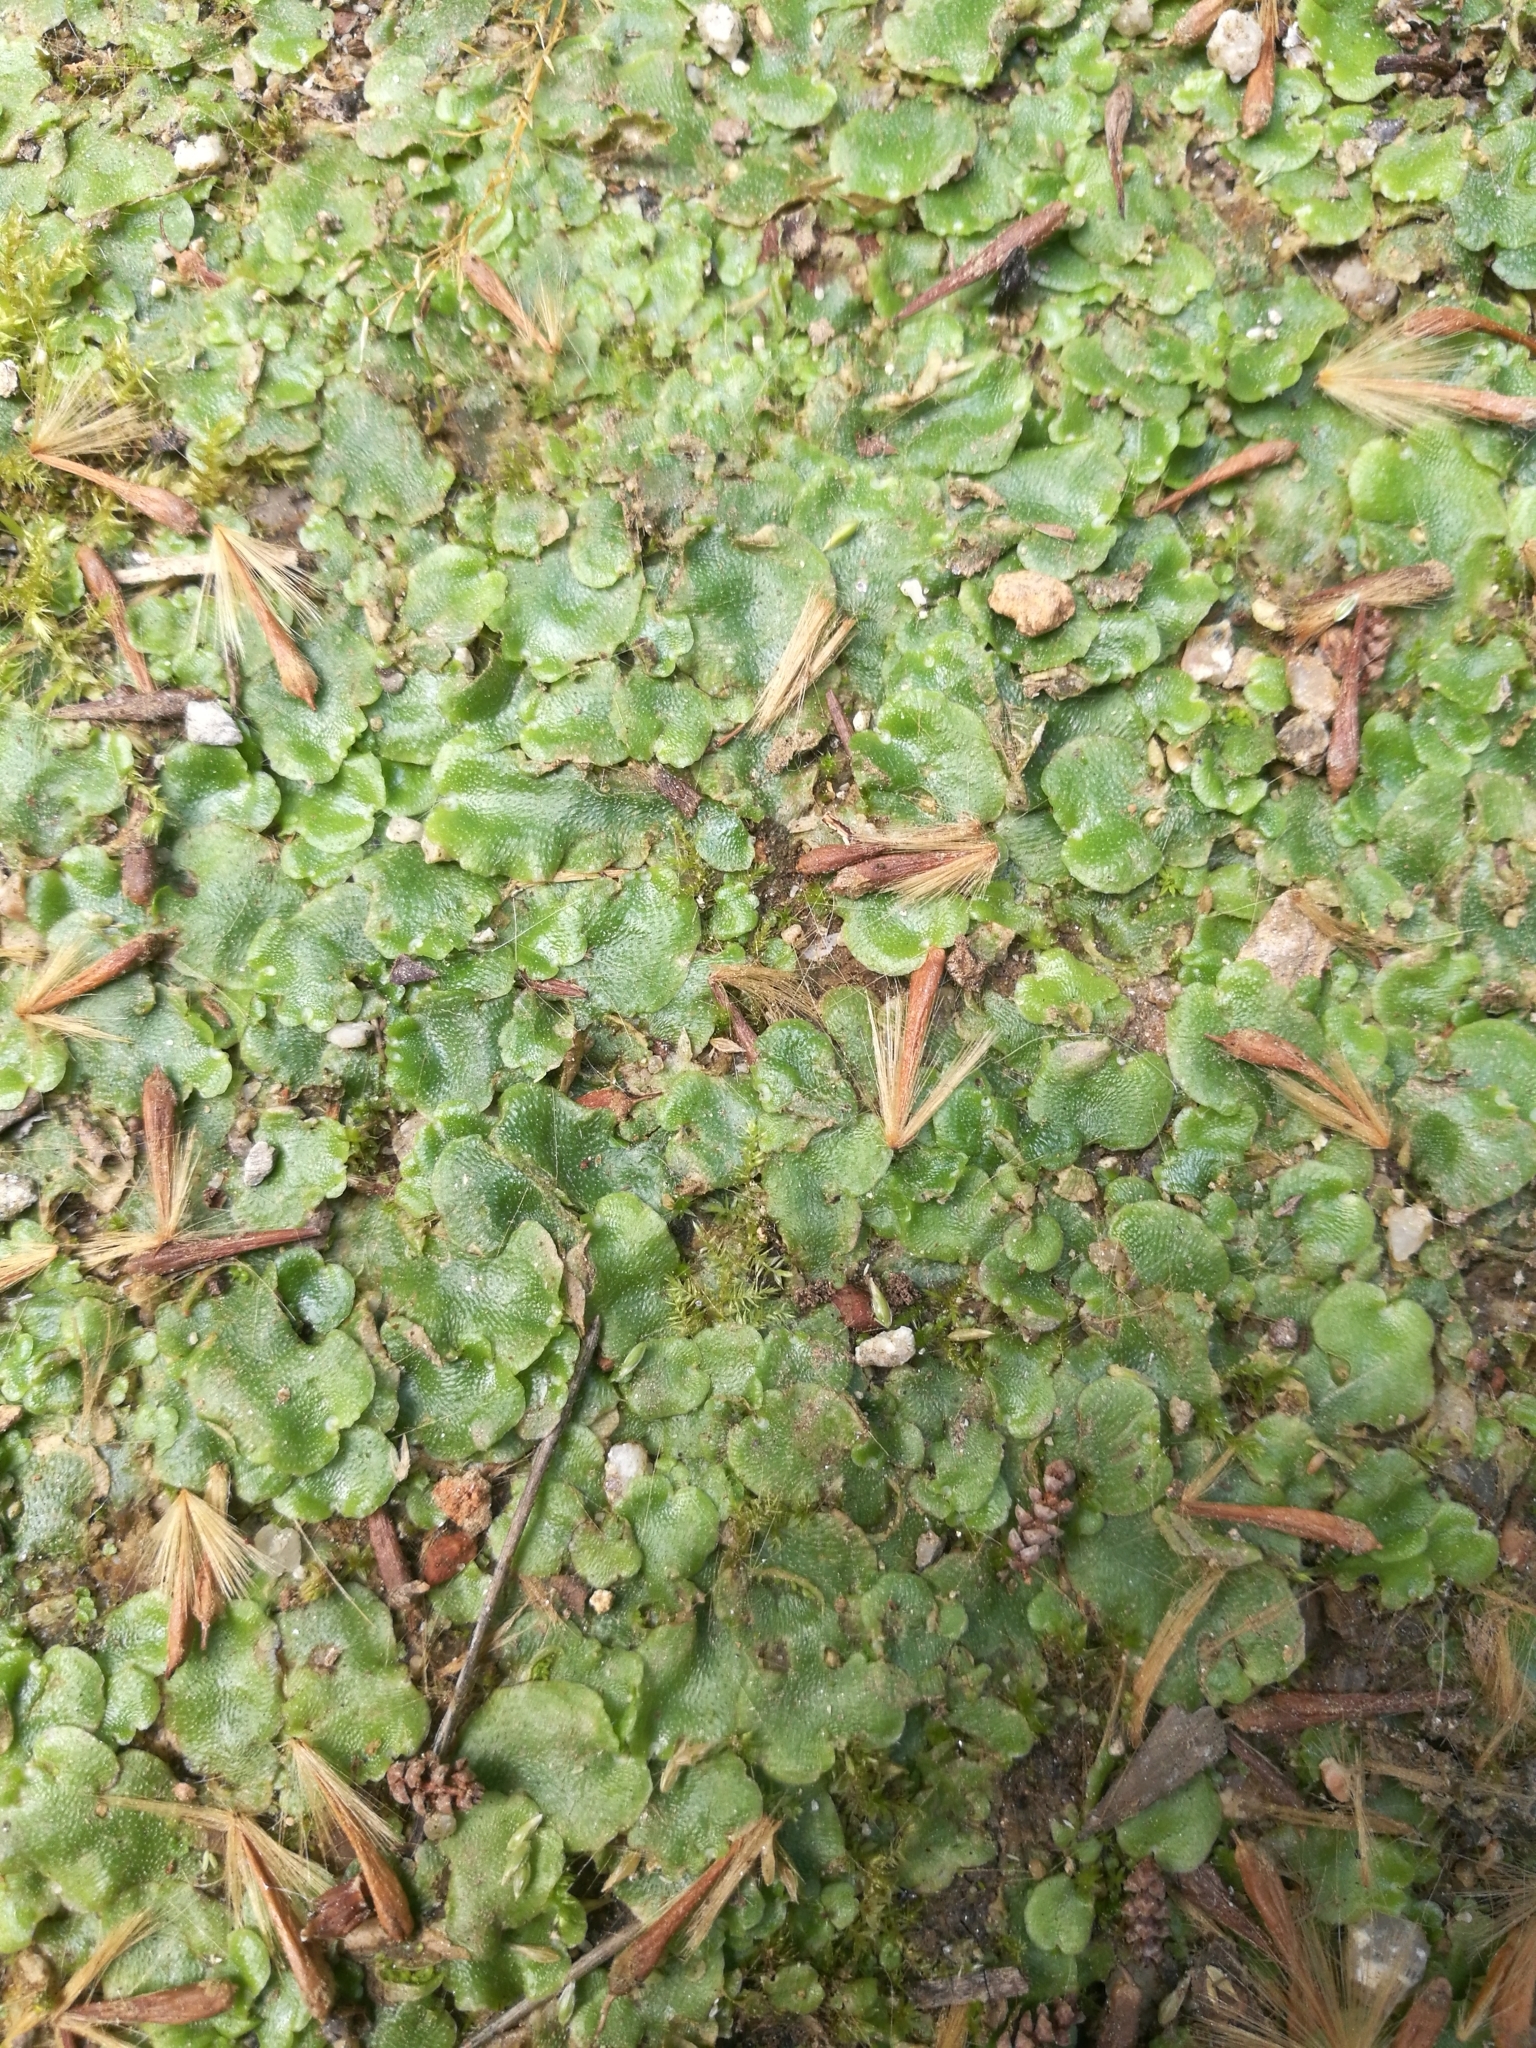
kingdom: Plantae
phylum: Marchantiophyta
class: Marchantiopsida
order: Lunulariales
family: Lunulariaceae
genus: Lunularia
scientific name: Lunularia cruciata
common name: Crescent-cup liverwort
